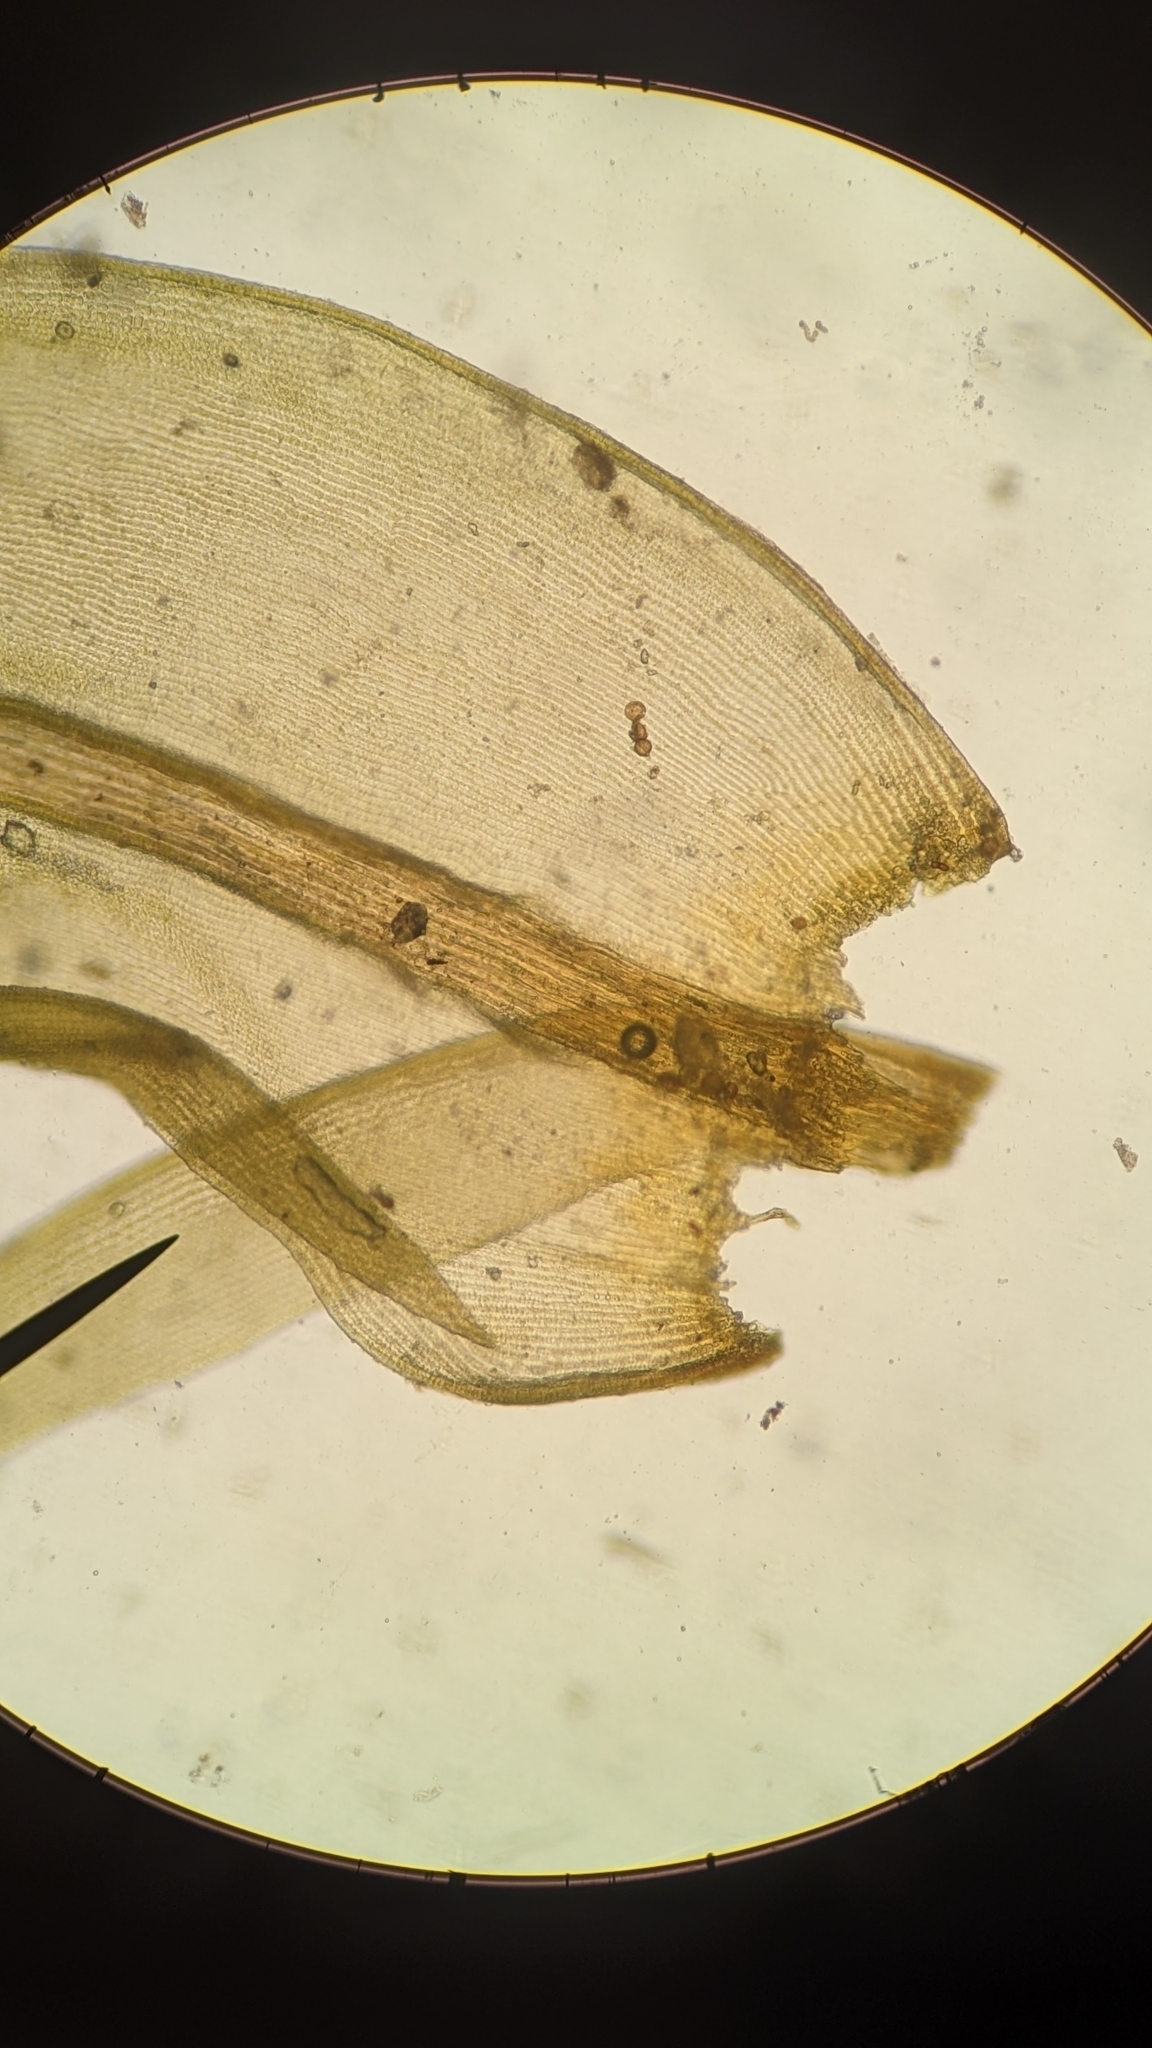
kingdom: Plantae
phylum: Bryophyta
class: Bryopsida
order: Grimmiales
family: Grimmiaceae
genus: Codriophorus
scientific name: Codriophorus acicularis
